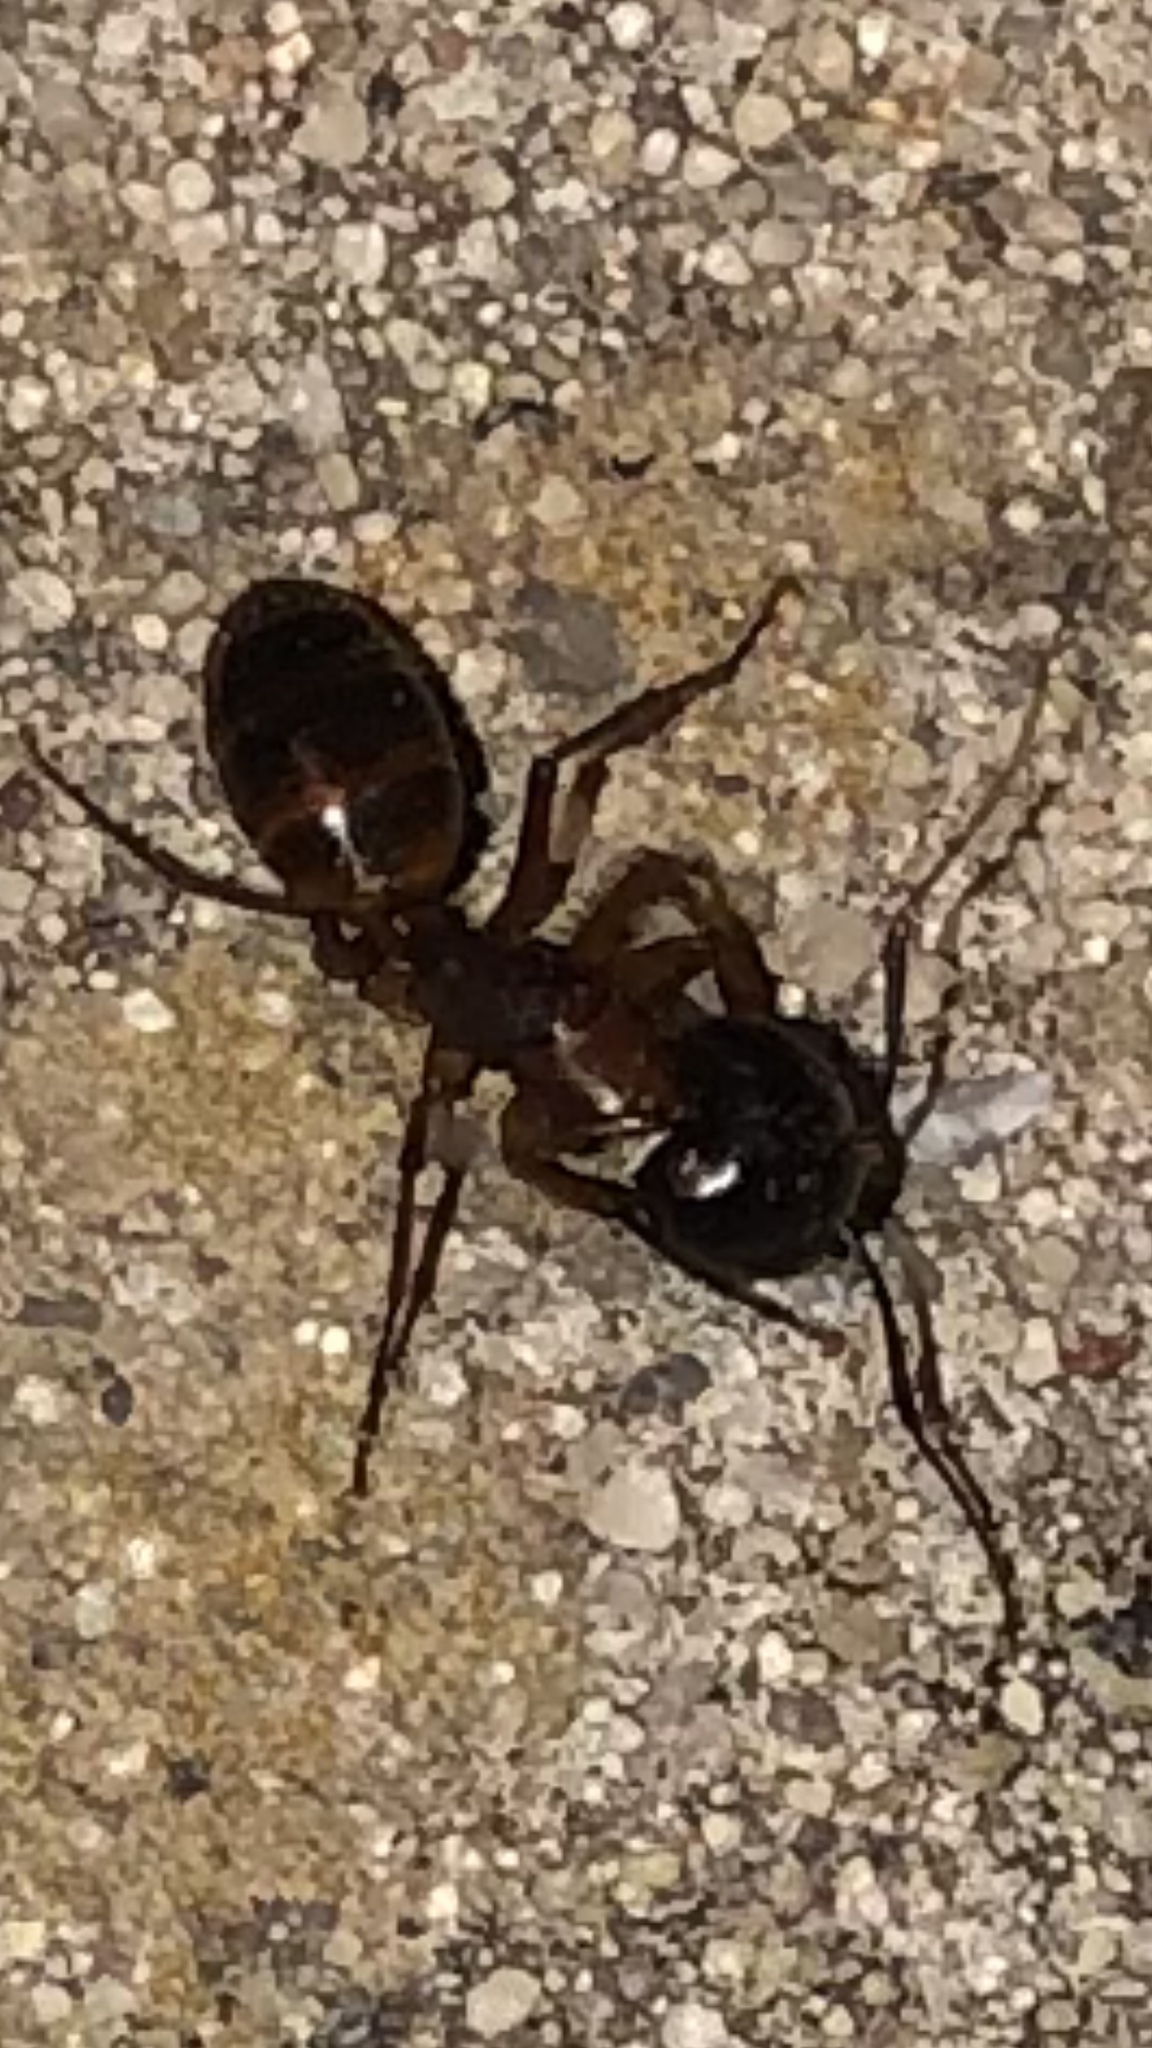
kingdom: Animalia
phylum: Arthropoda
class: Insecta
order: Hymenoptera
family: Formicidae
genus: Camponotus
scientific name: Camponotus americanus
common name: American carpenter ant
